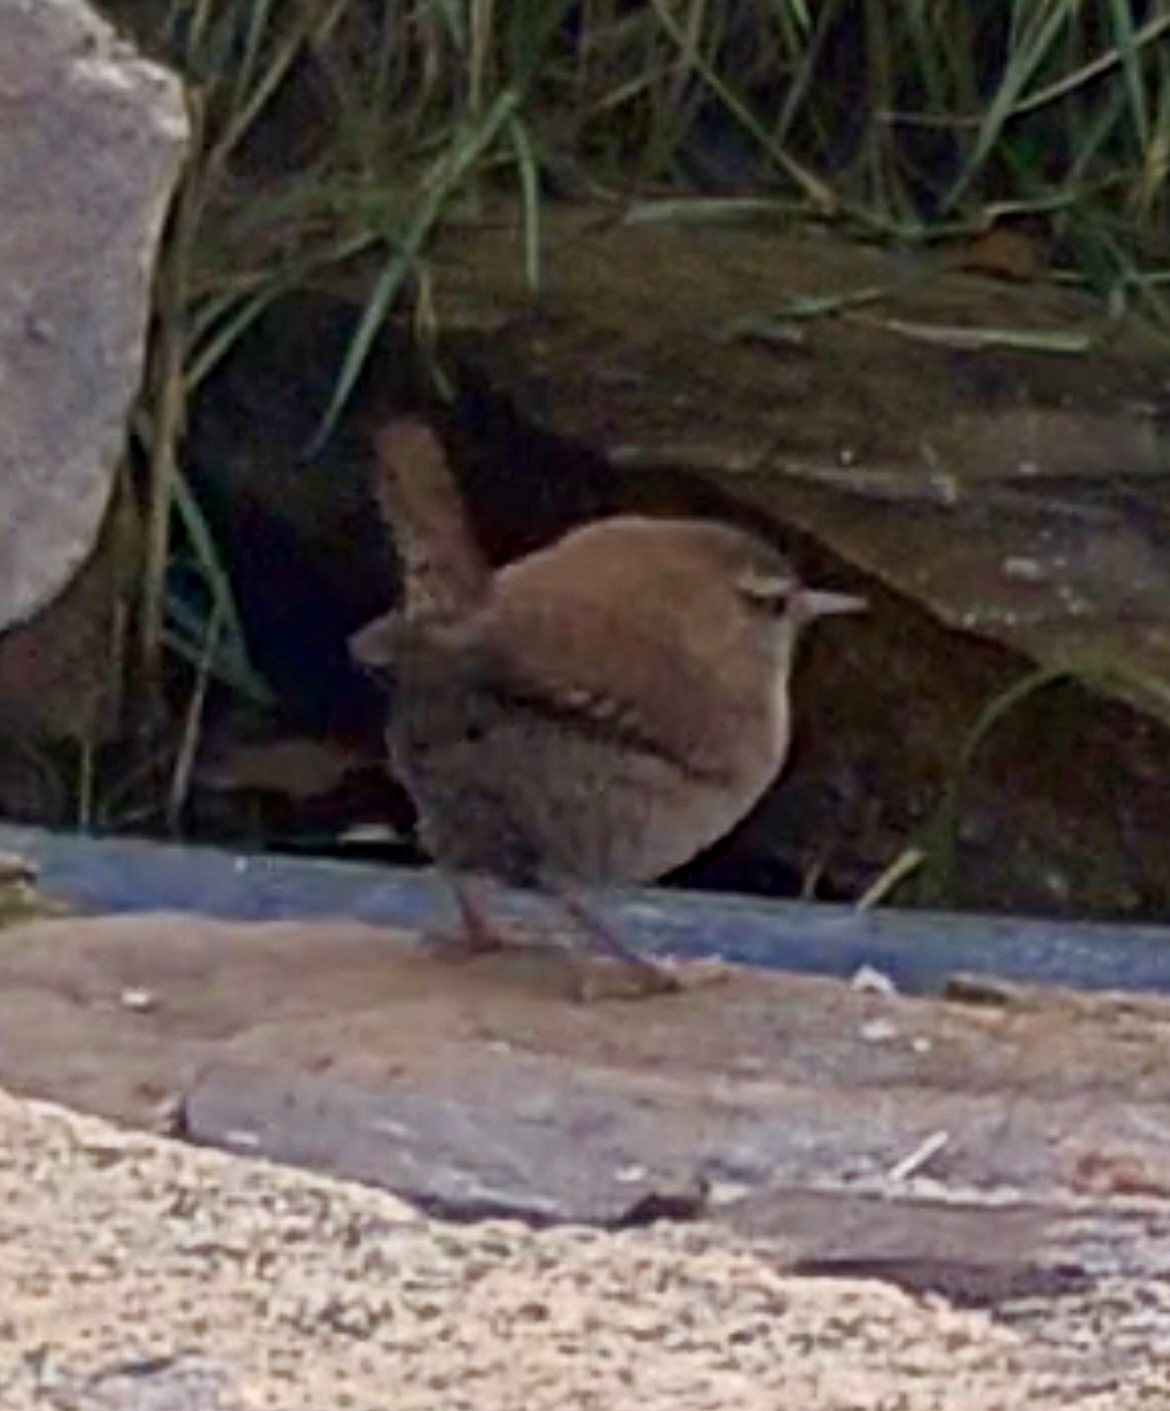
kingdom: Animalia
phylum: Chordata
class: Aves
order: Passeriformes
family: Troglodytidae
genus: Troglodytes
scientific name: Troglodytes troglodytes
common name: Eurasian wren
